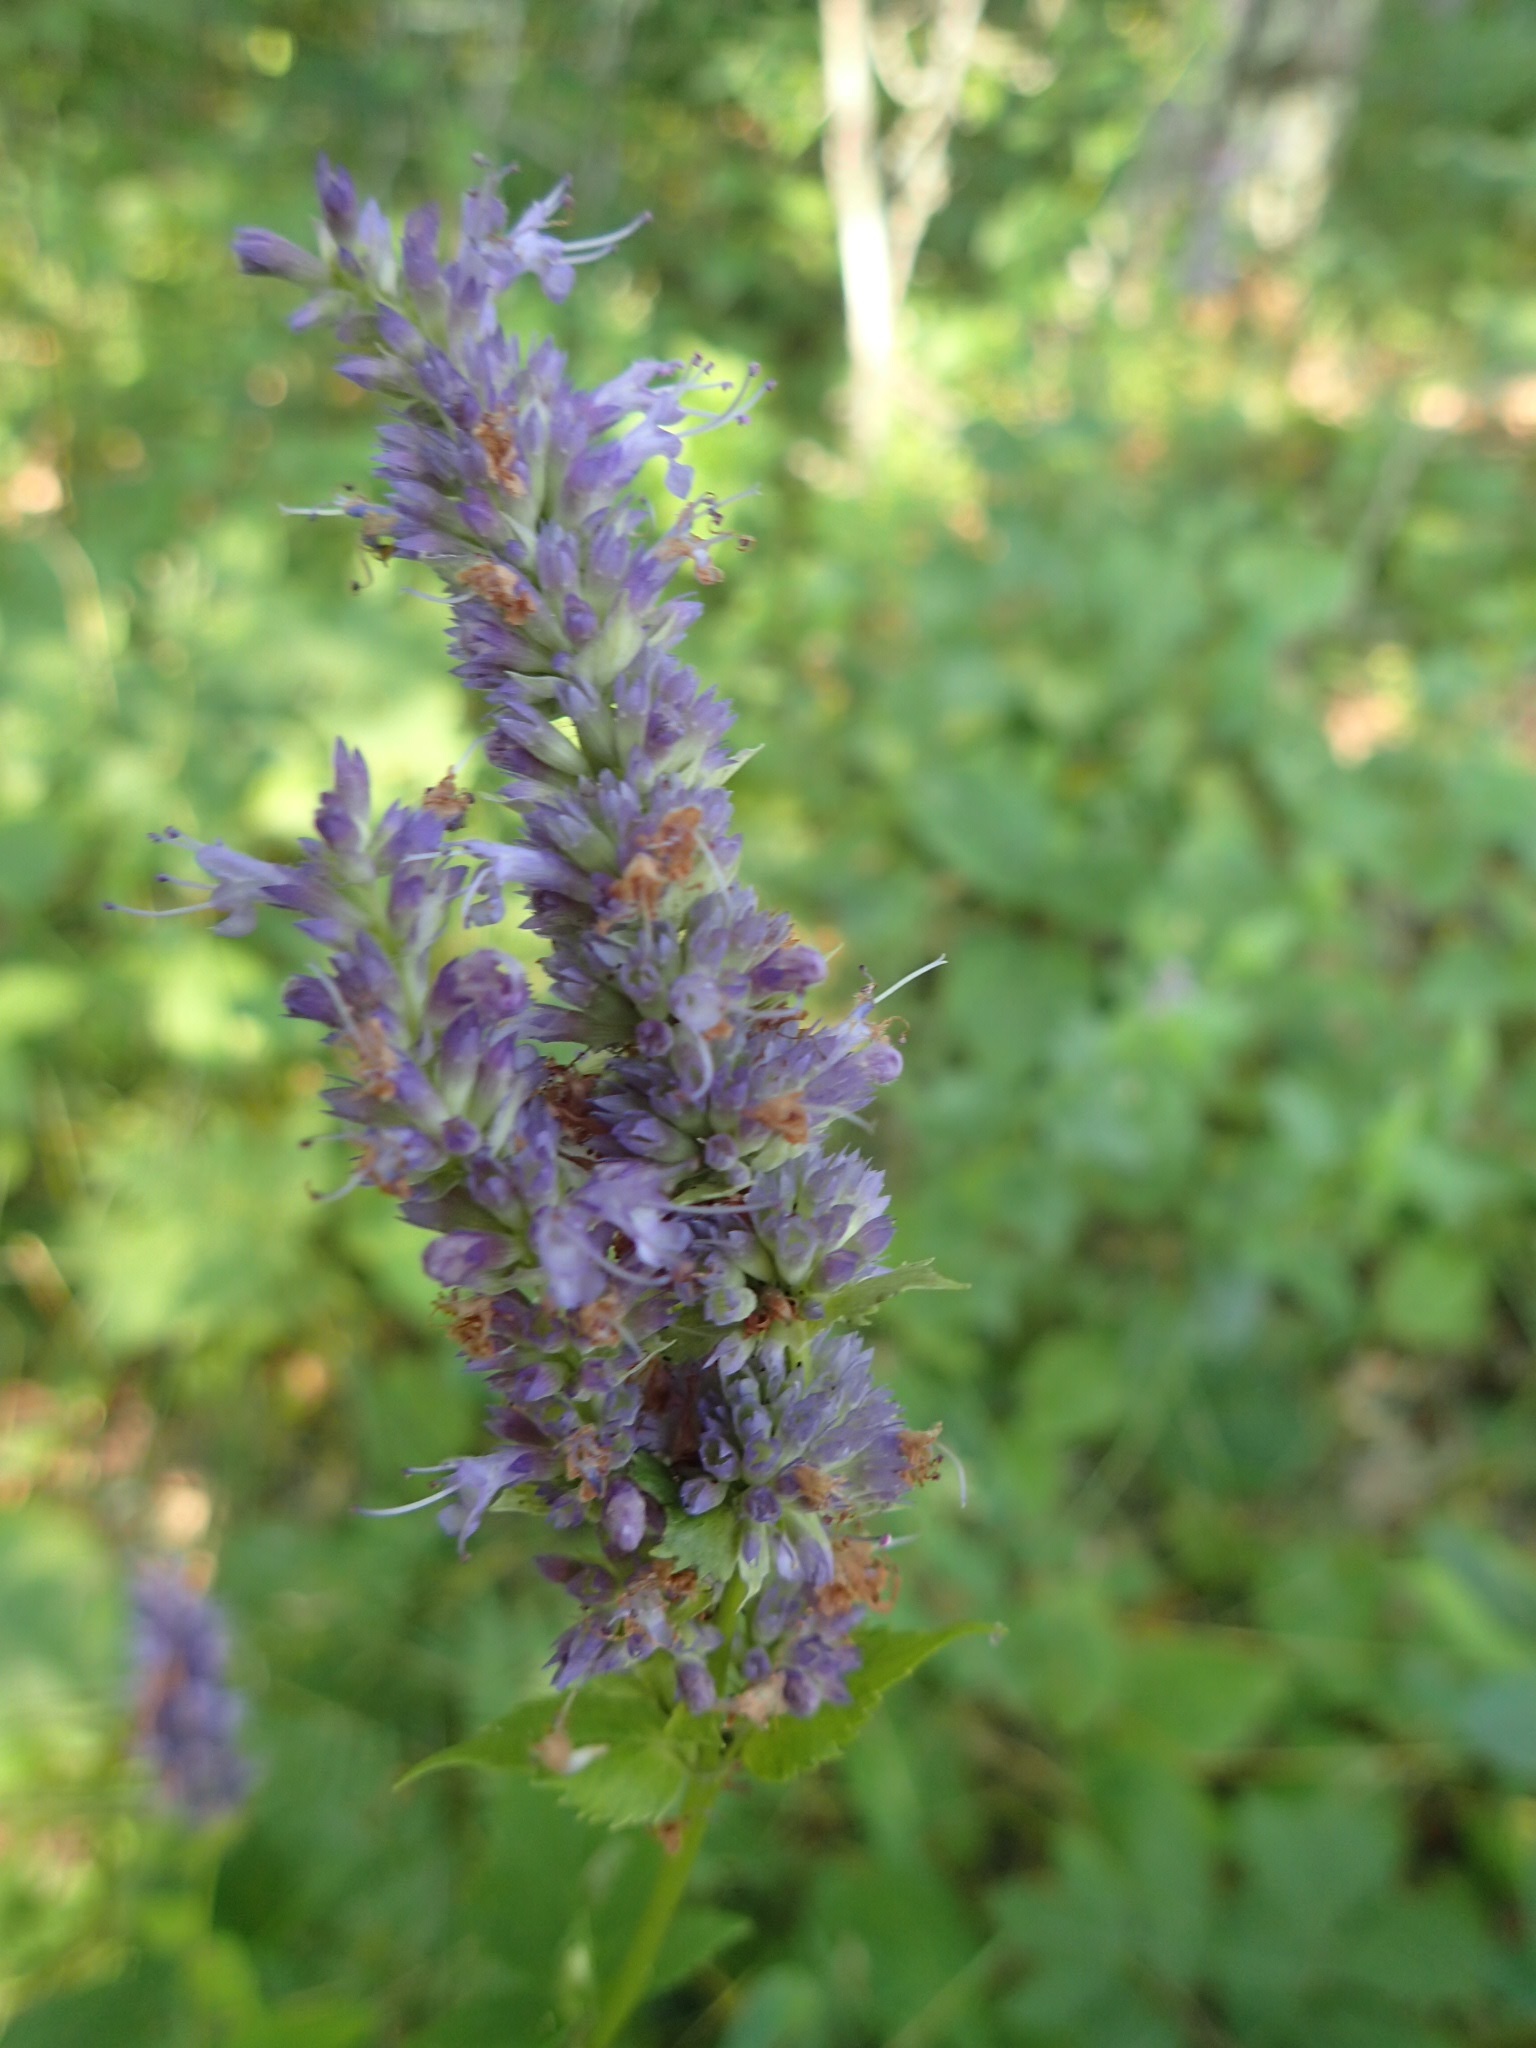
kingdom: Plantae
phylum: Tracheophyta
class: Magnoliopsida
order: Lamiales
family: Lamiaceae
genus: Agastache
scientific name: Agastache foeniculum
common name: Anise hyssop
